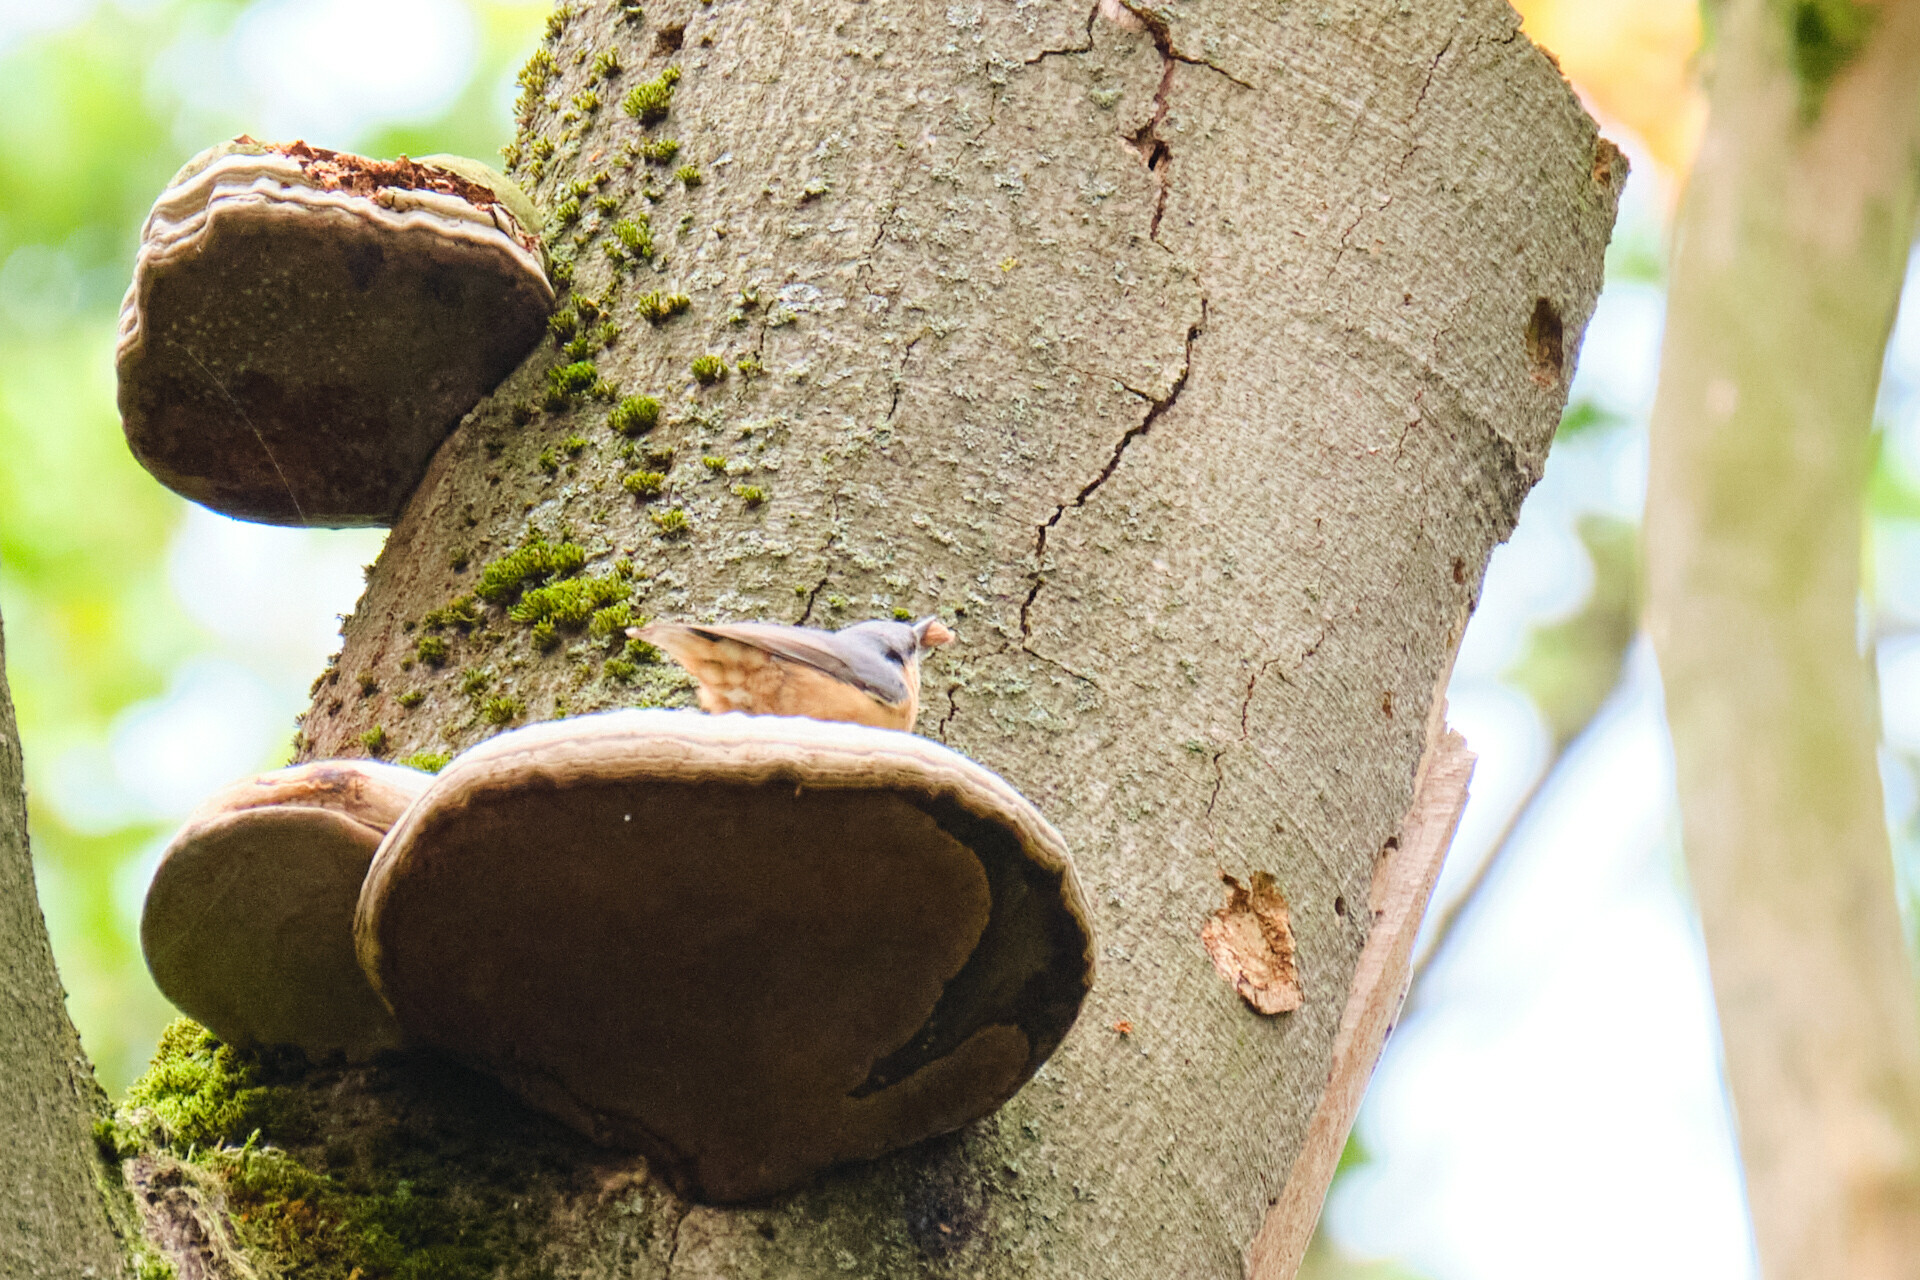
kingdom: Animalia
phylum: Chordata
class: Aves
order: Passeriformes
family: Sittidae
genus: Sitta
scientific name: Sitta europaea
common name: Eurasian nuthatch
